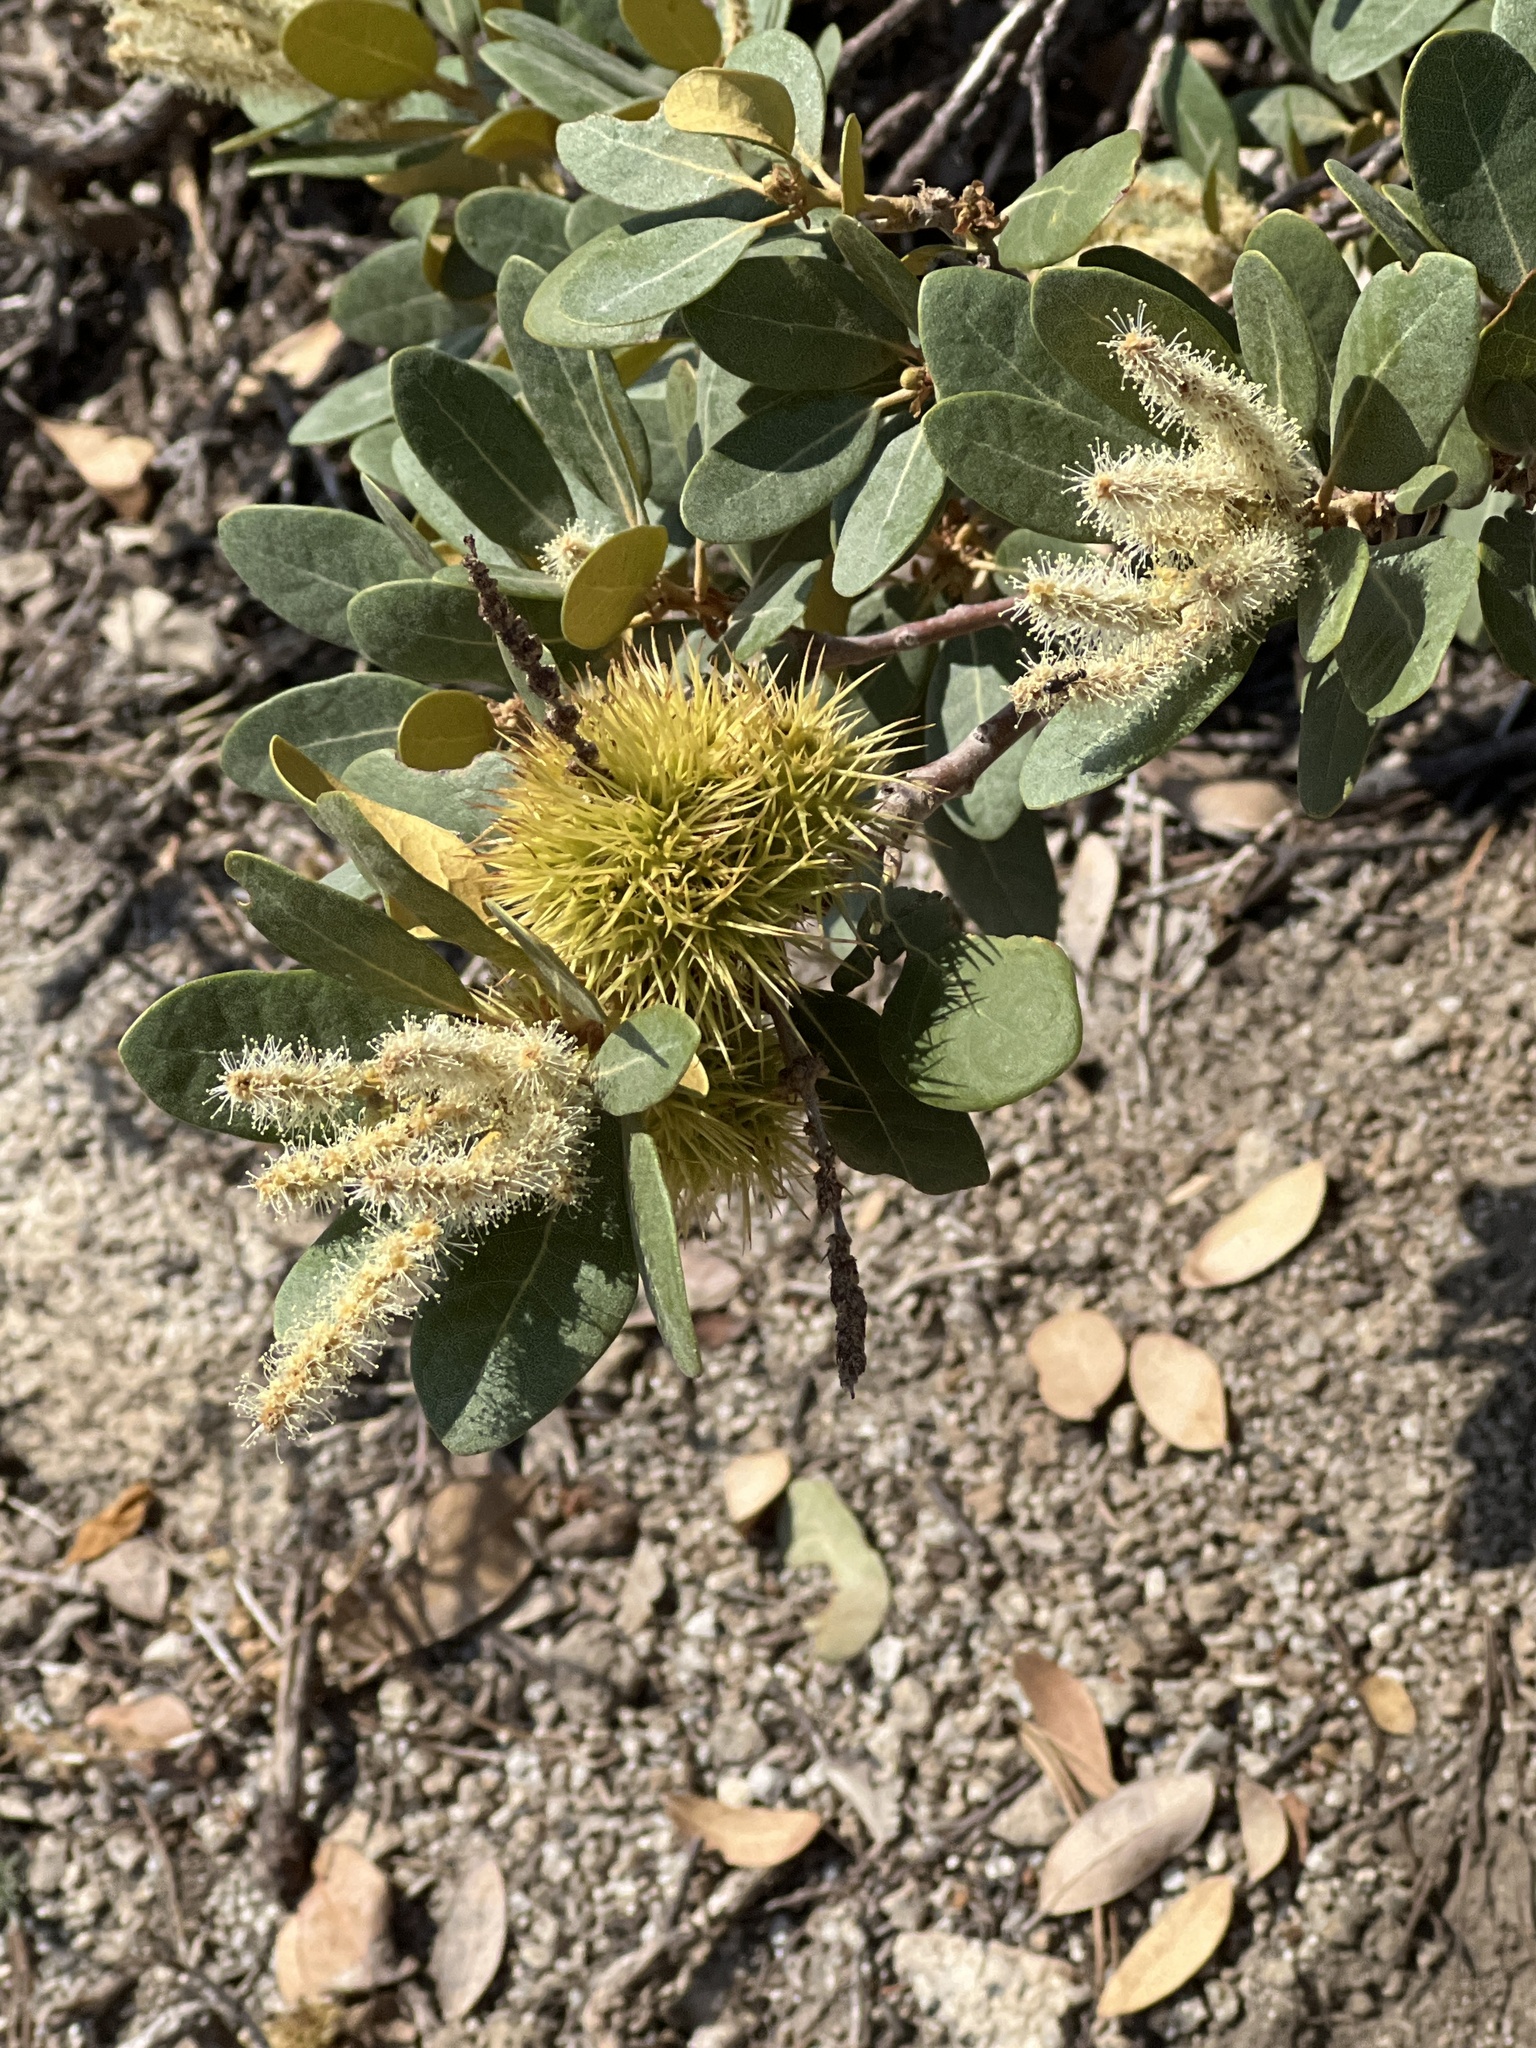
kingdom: Plantae
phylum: Tracheophyta
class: Magnoliopsida
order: Fagales
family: Fagaceae
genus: Chrysolepis
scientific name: Chrysolepis sempervirens
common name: Bush chinquapin
